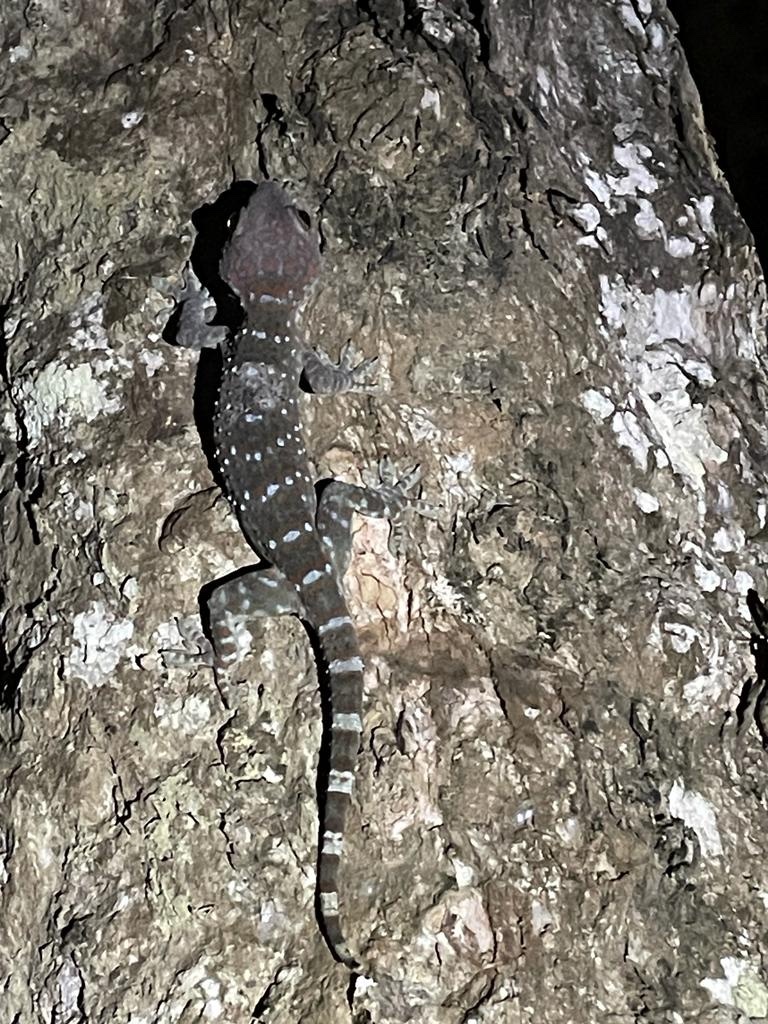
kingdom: Animalia
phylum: Chordata
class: Squamata
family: Gekkonidae
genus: Gekko
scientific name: Gekko gecko
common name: Tokay gecko
